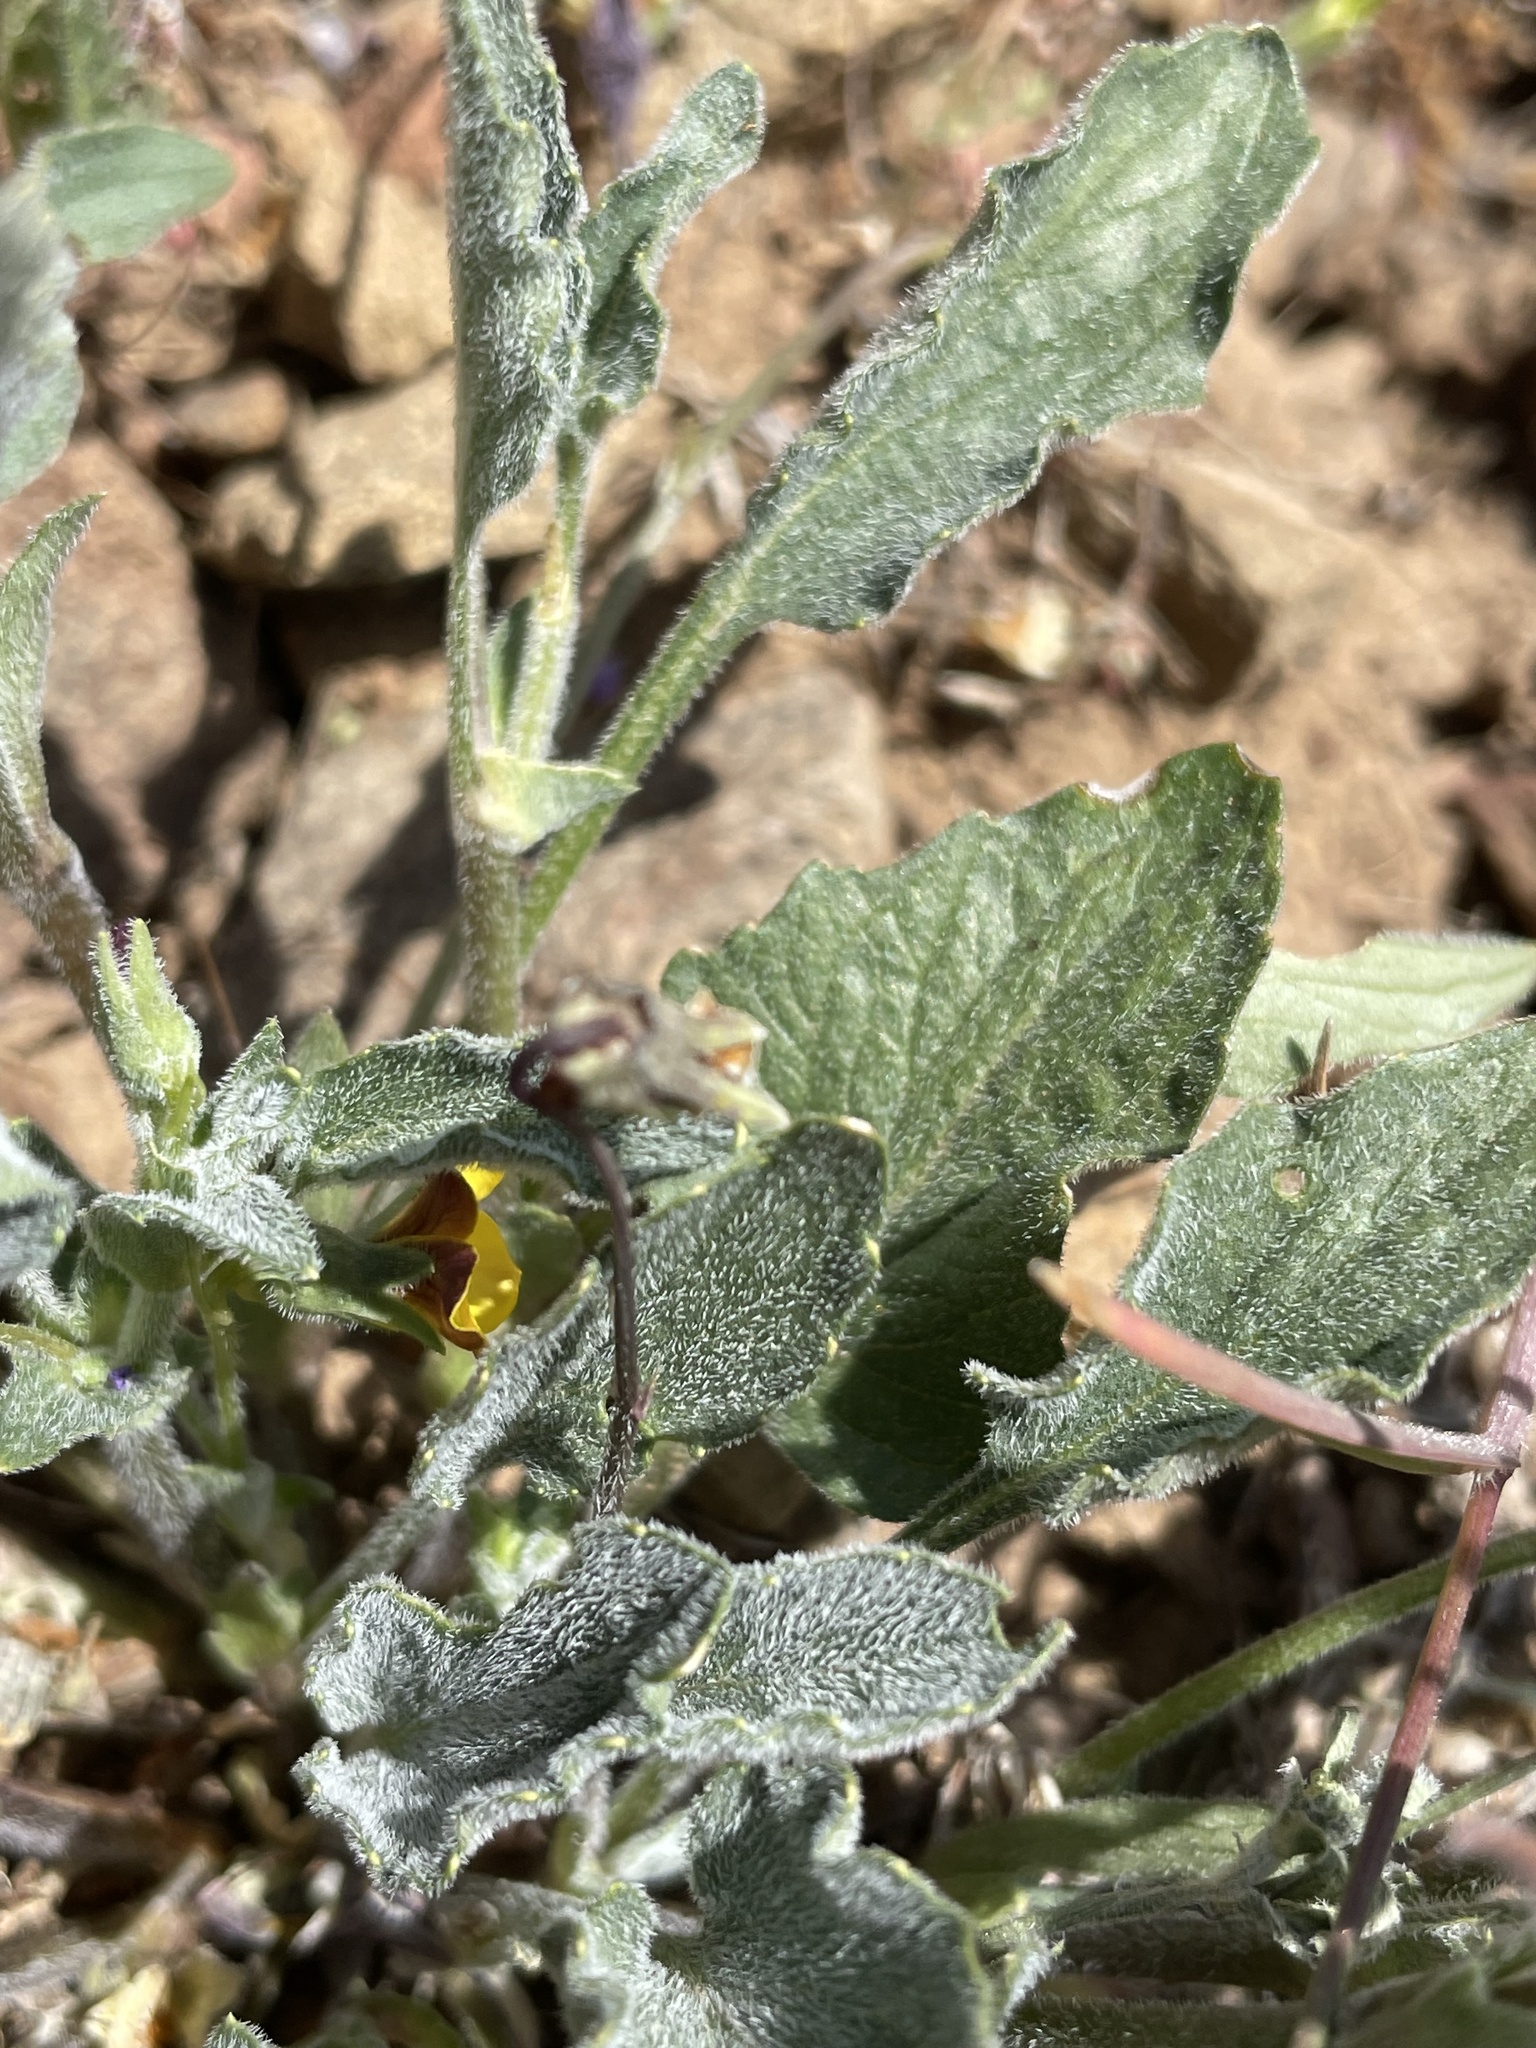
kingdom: Plantae
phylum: Tracheophyta
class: Magnoliopsida
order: Malpighiales
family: Violaceae
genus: Viola
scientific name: Viola purpurea
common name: Pine violet
